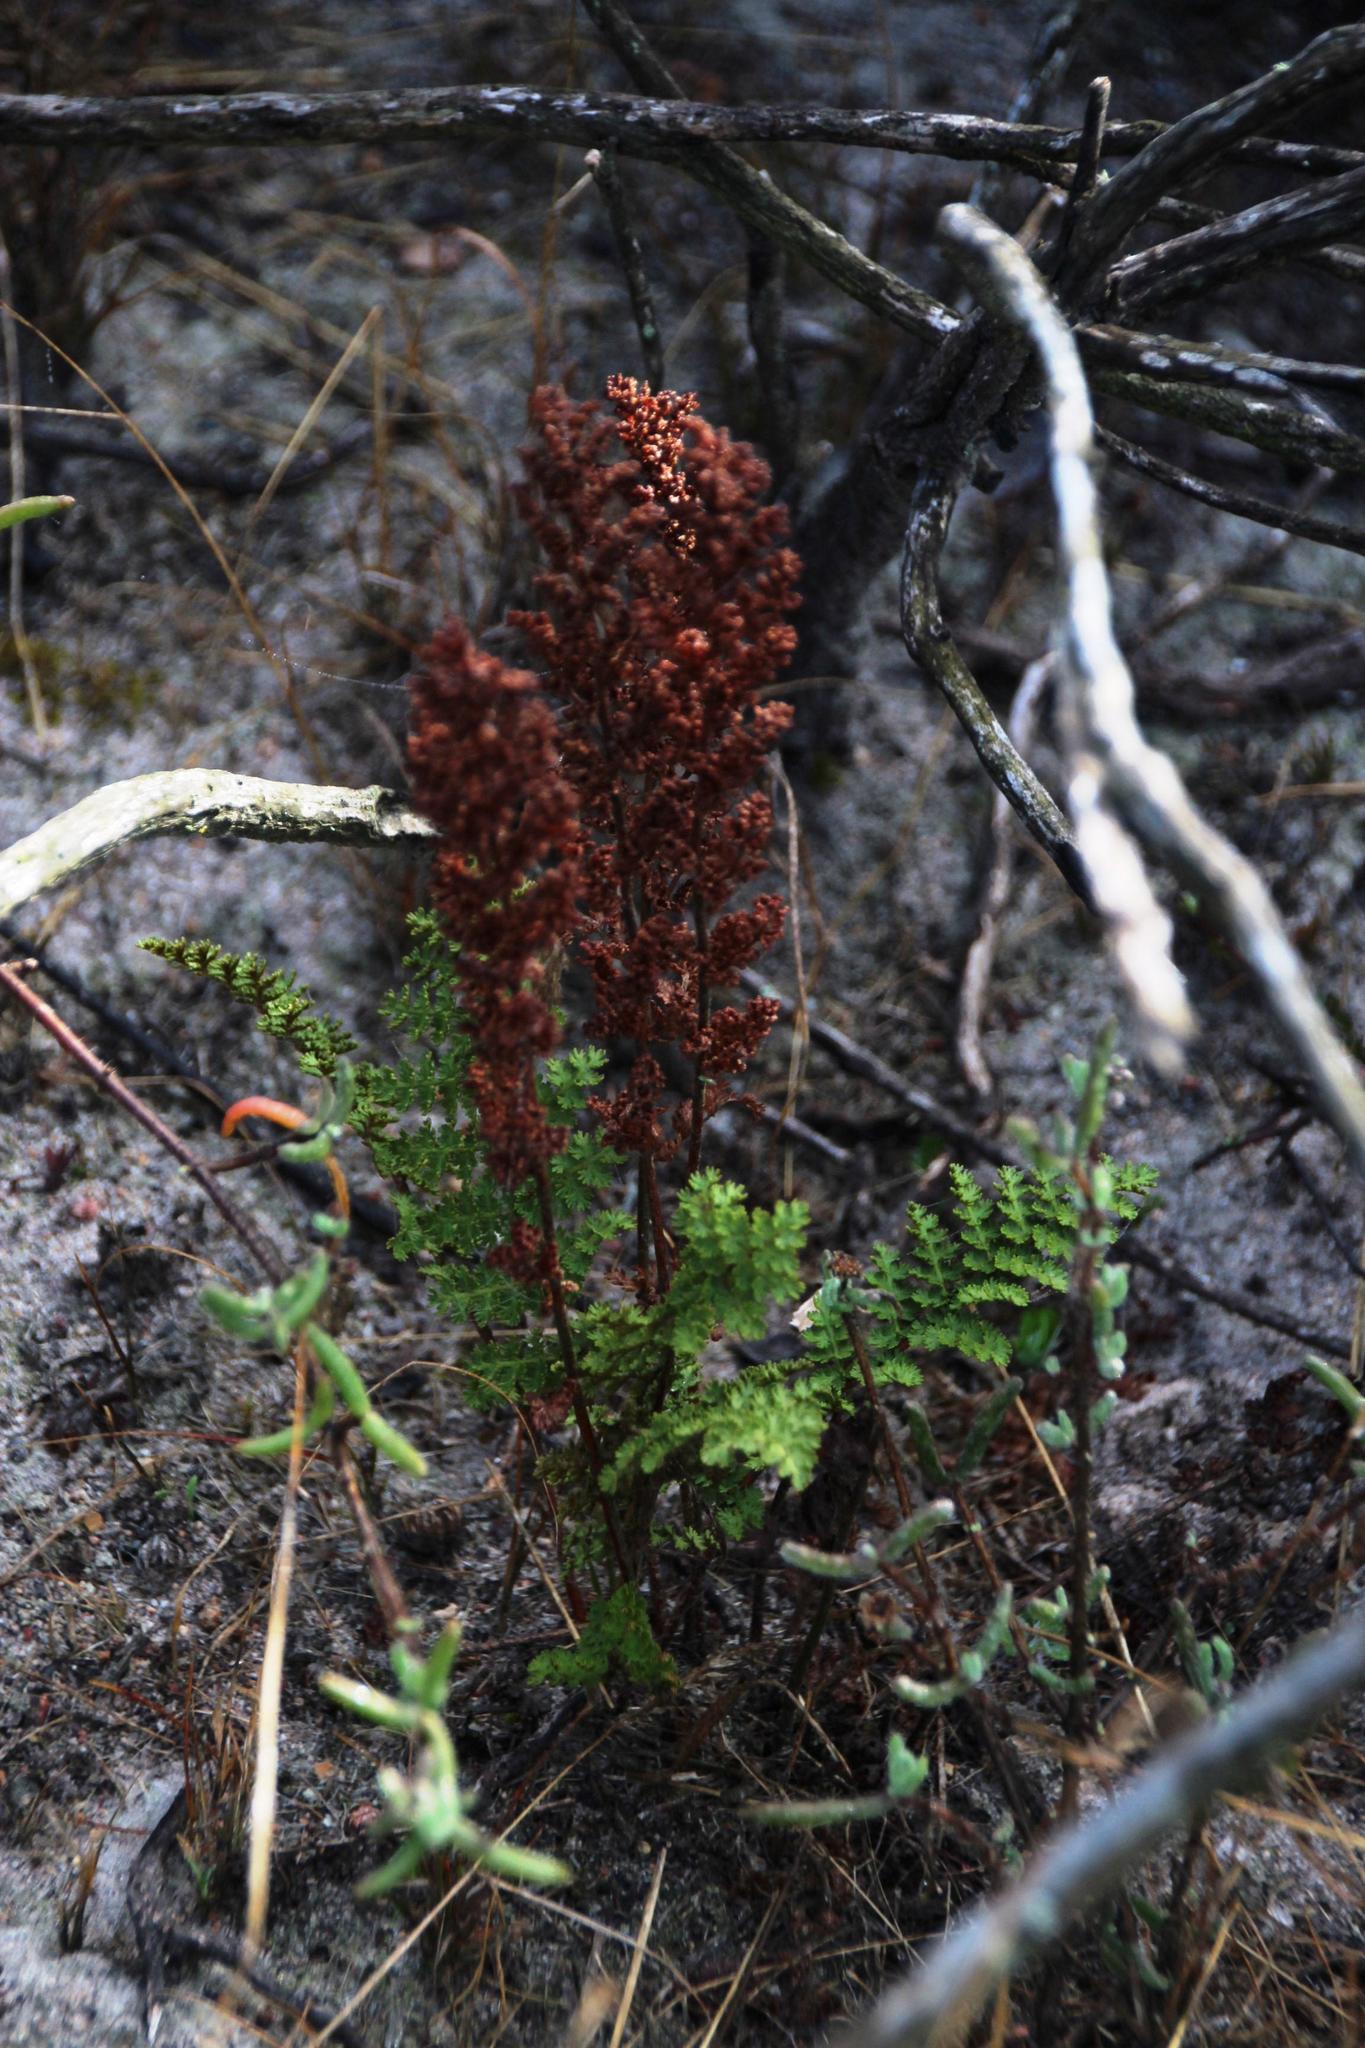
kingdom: Plantae
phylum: Tracheophyta
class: Polypodiopsida
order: Schizaeales
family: Anemiaceae
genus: Anemia
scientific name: Anemia caffrorum
